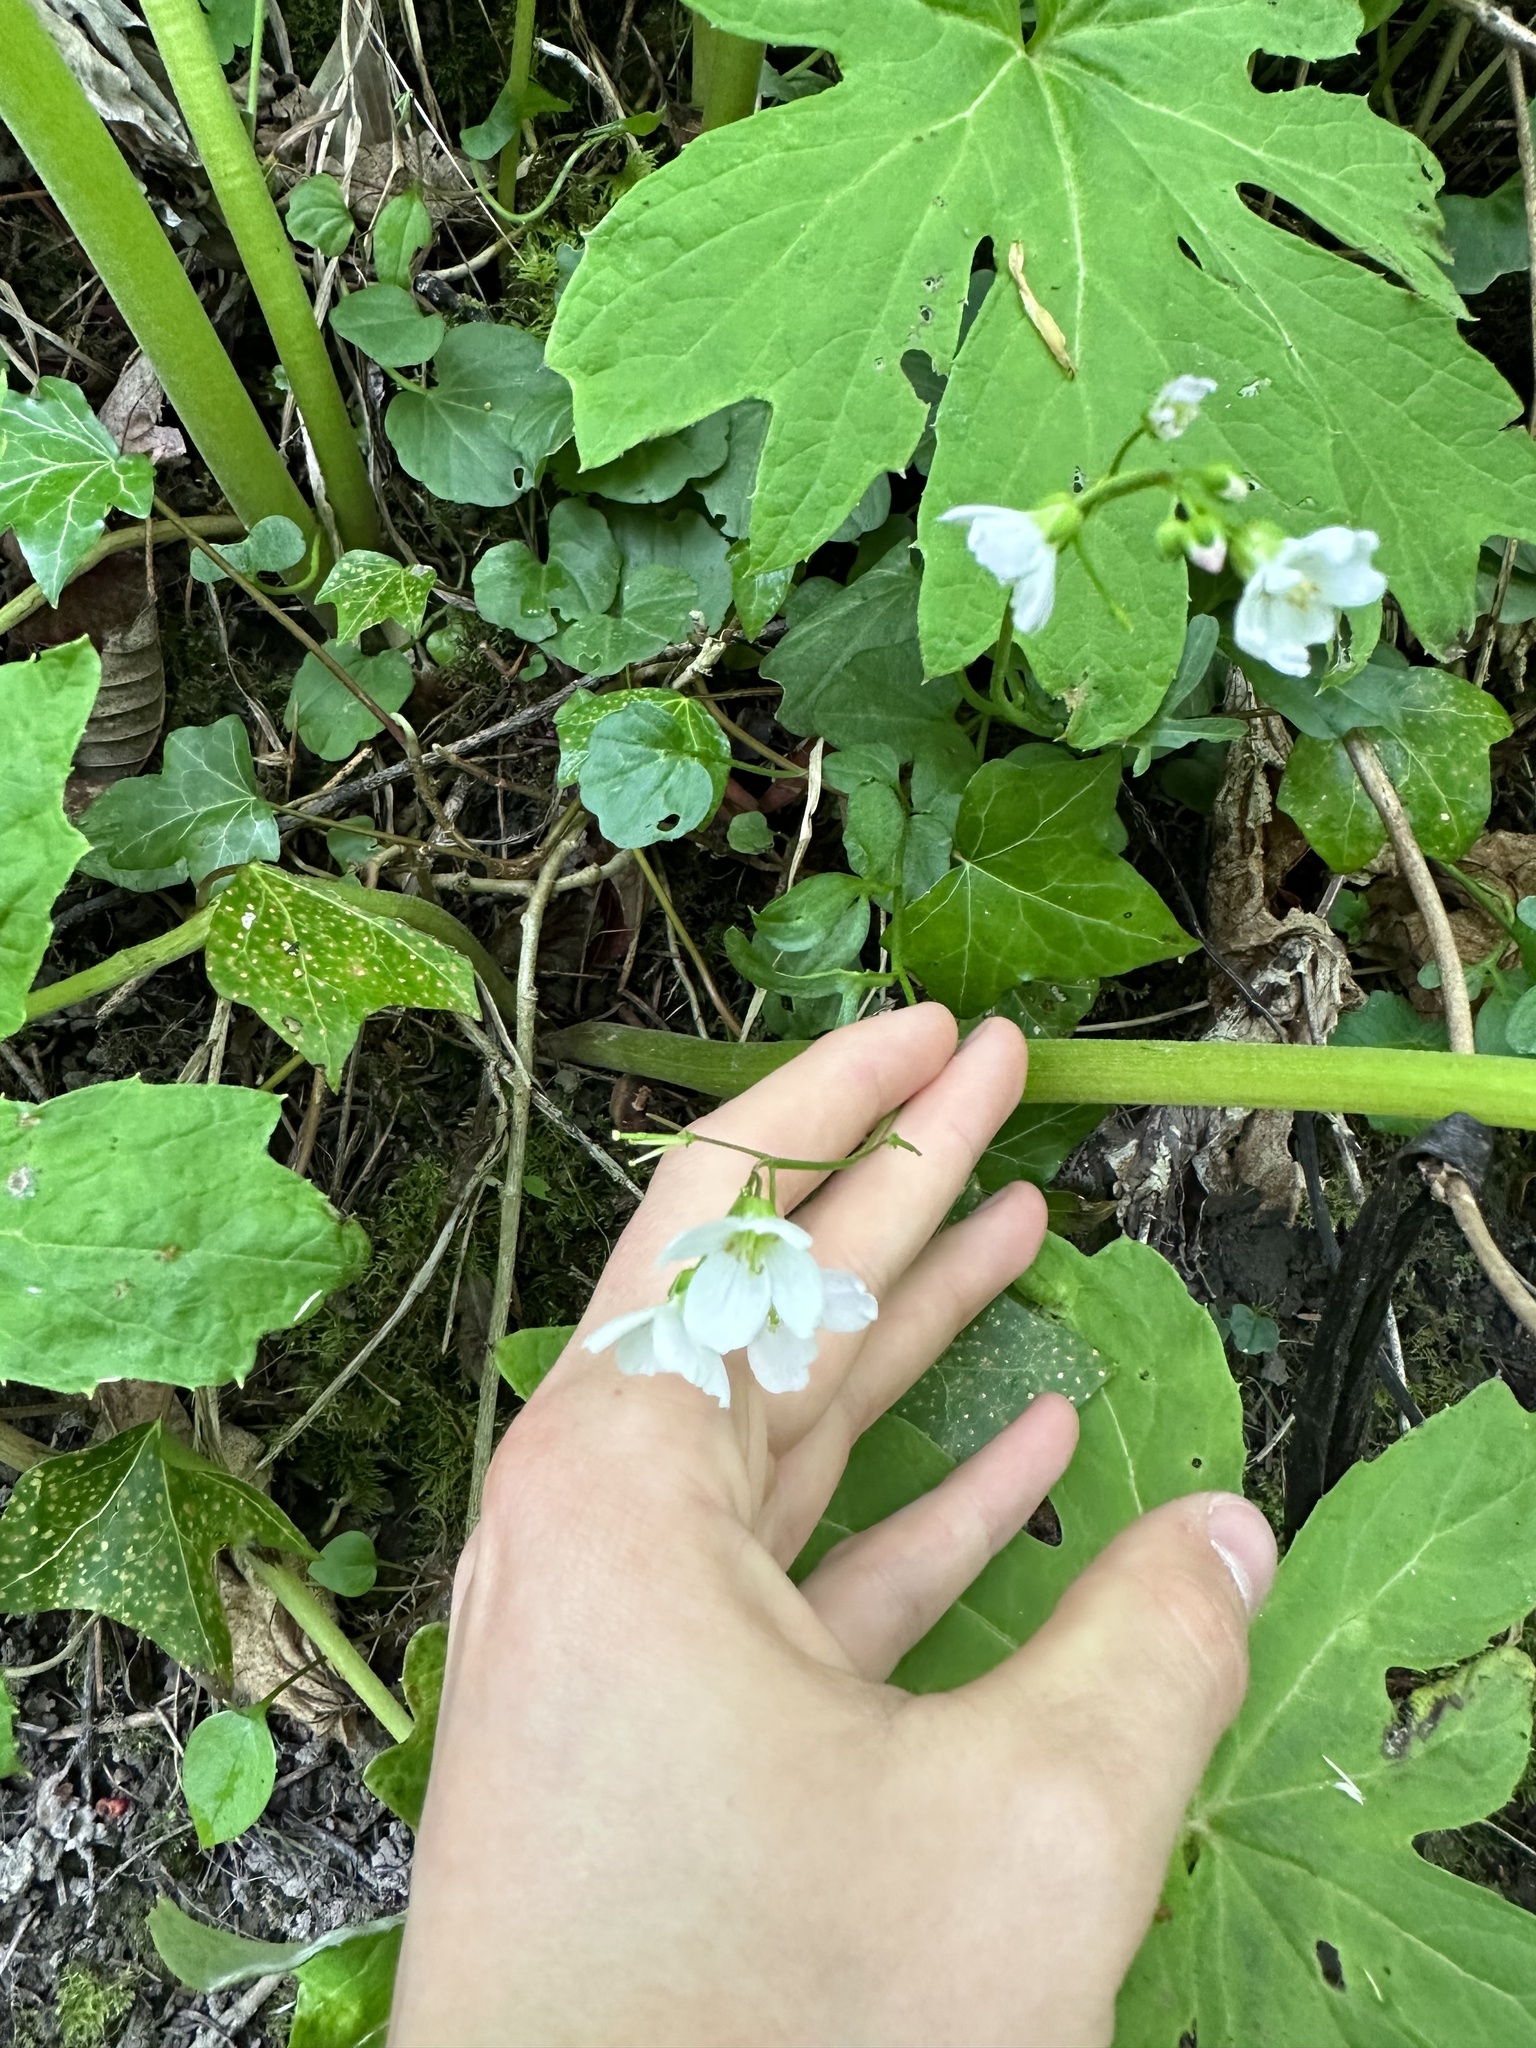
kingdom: Plantae
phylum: Tracheophyta
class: Magnoliopsida
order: Brassicales
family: Brassicaceae
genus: Cardamine
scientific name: Cardamine nuttallii
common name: Nuttall's toothwort
